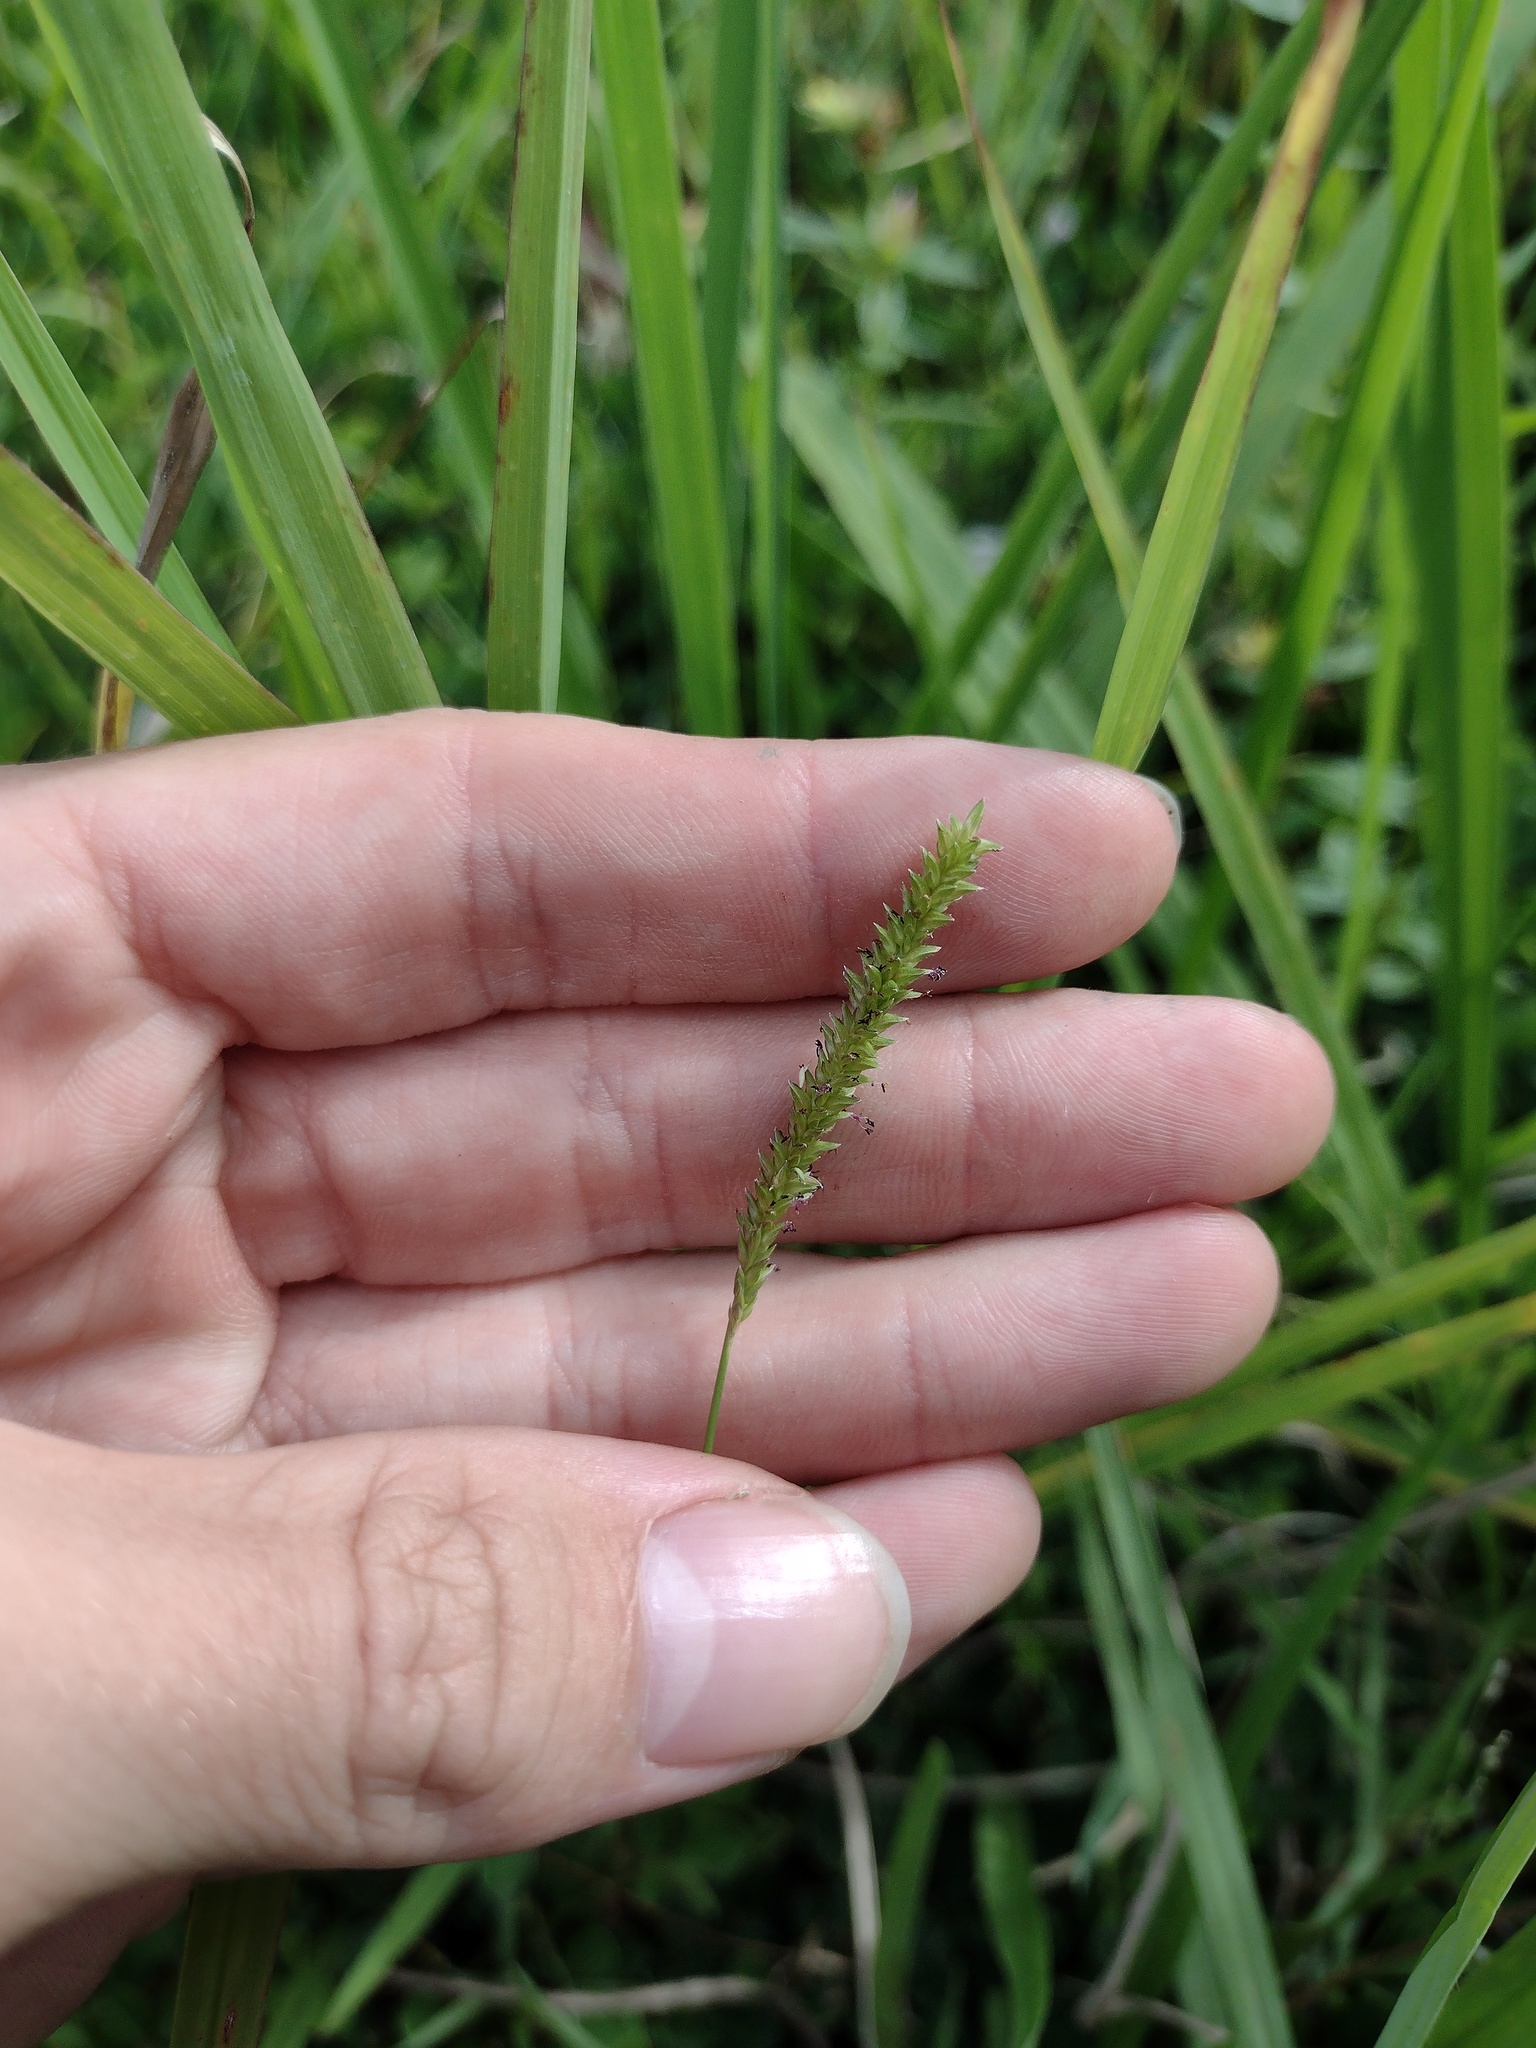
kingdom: Plantae
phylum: Tracheophyta
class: Liliopsida
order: Poales
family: Poaceae
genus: Sacciolepis
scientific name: Sacciolepis indica
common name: Glenwoodgrass
